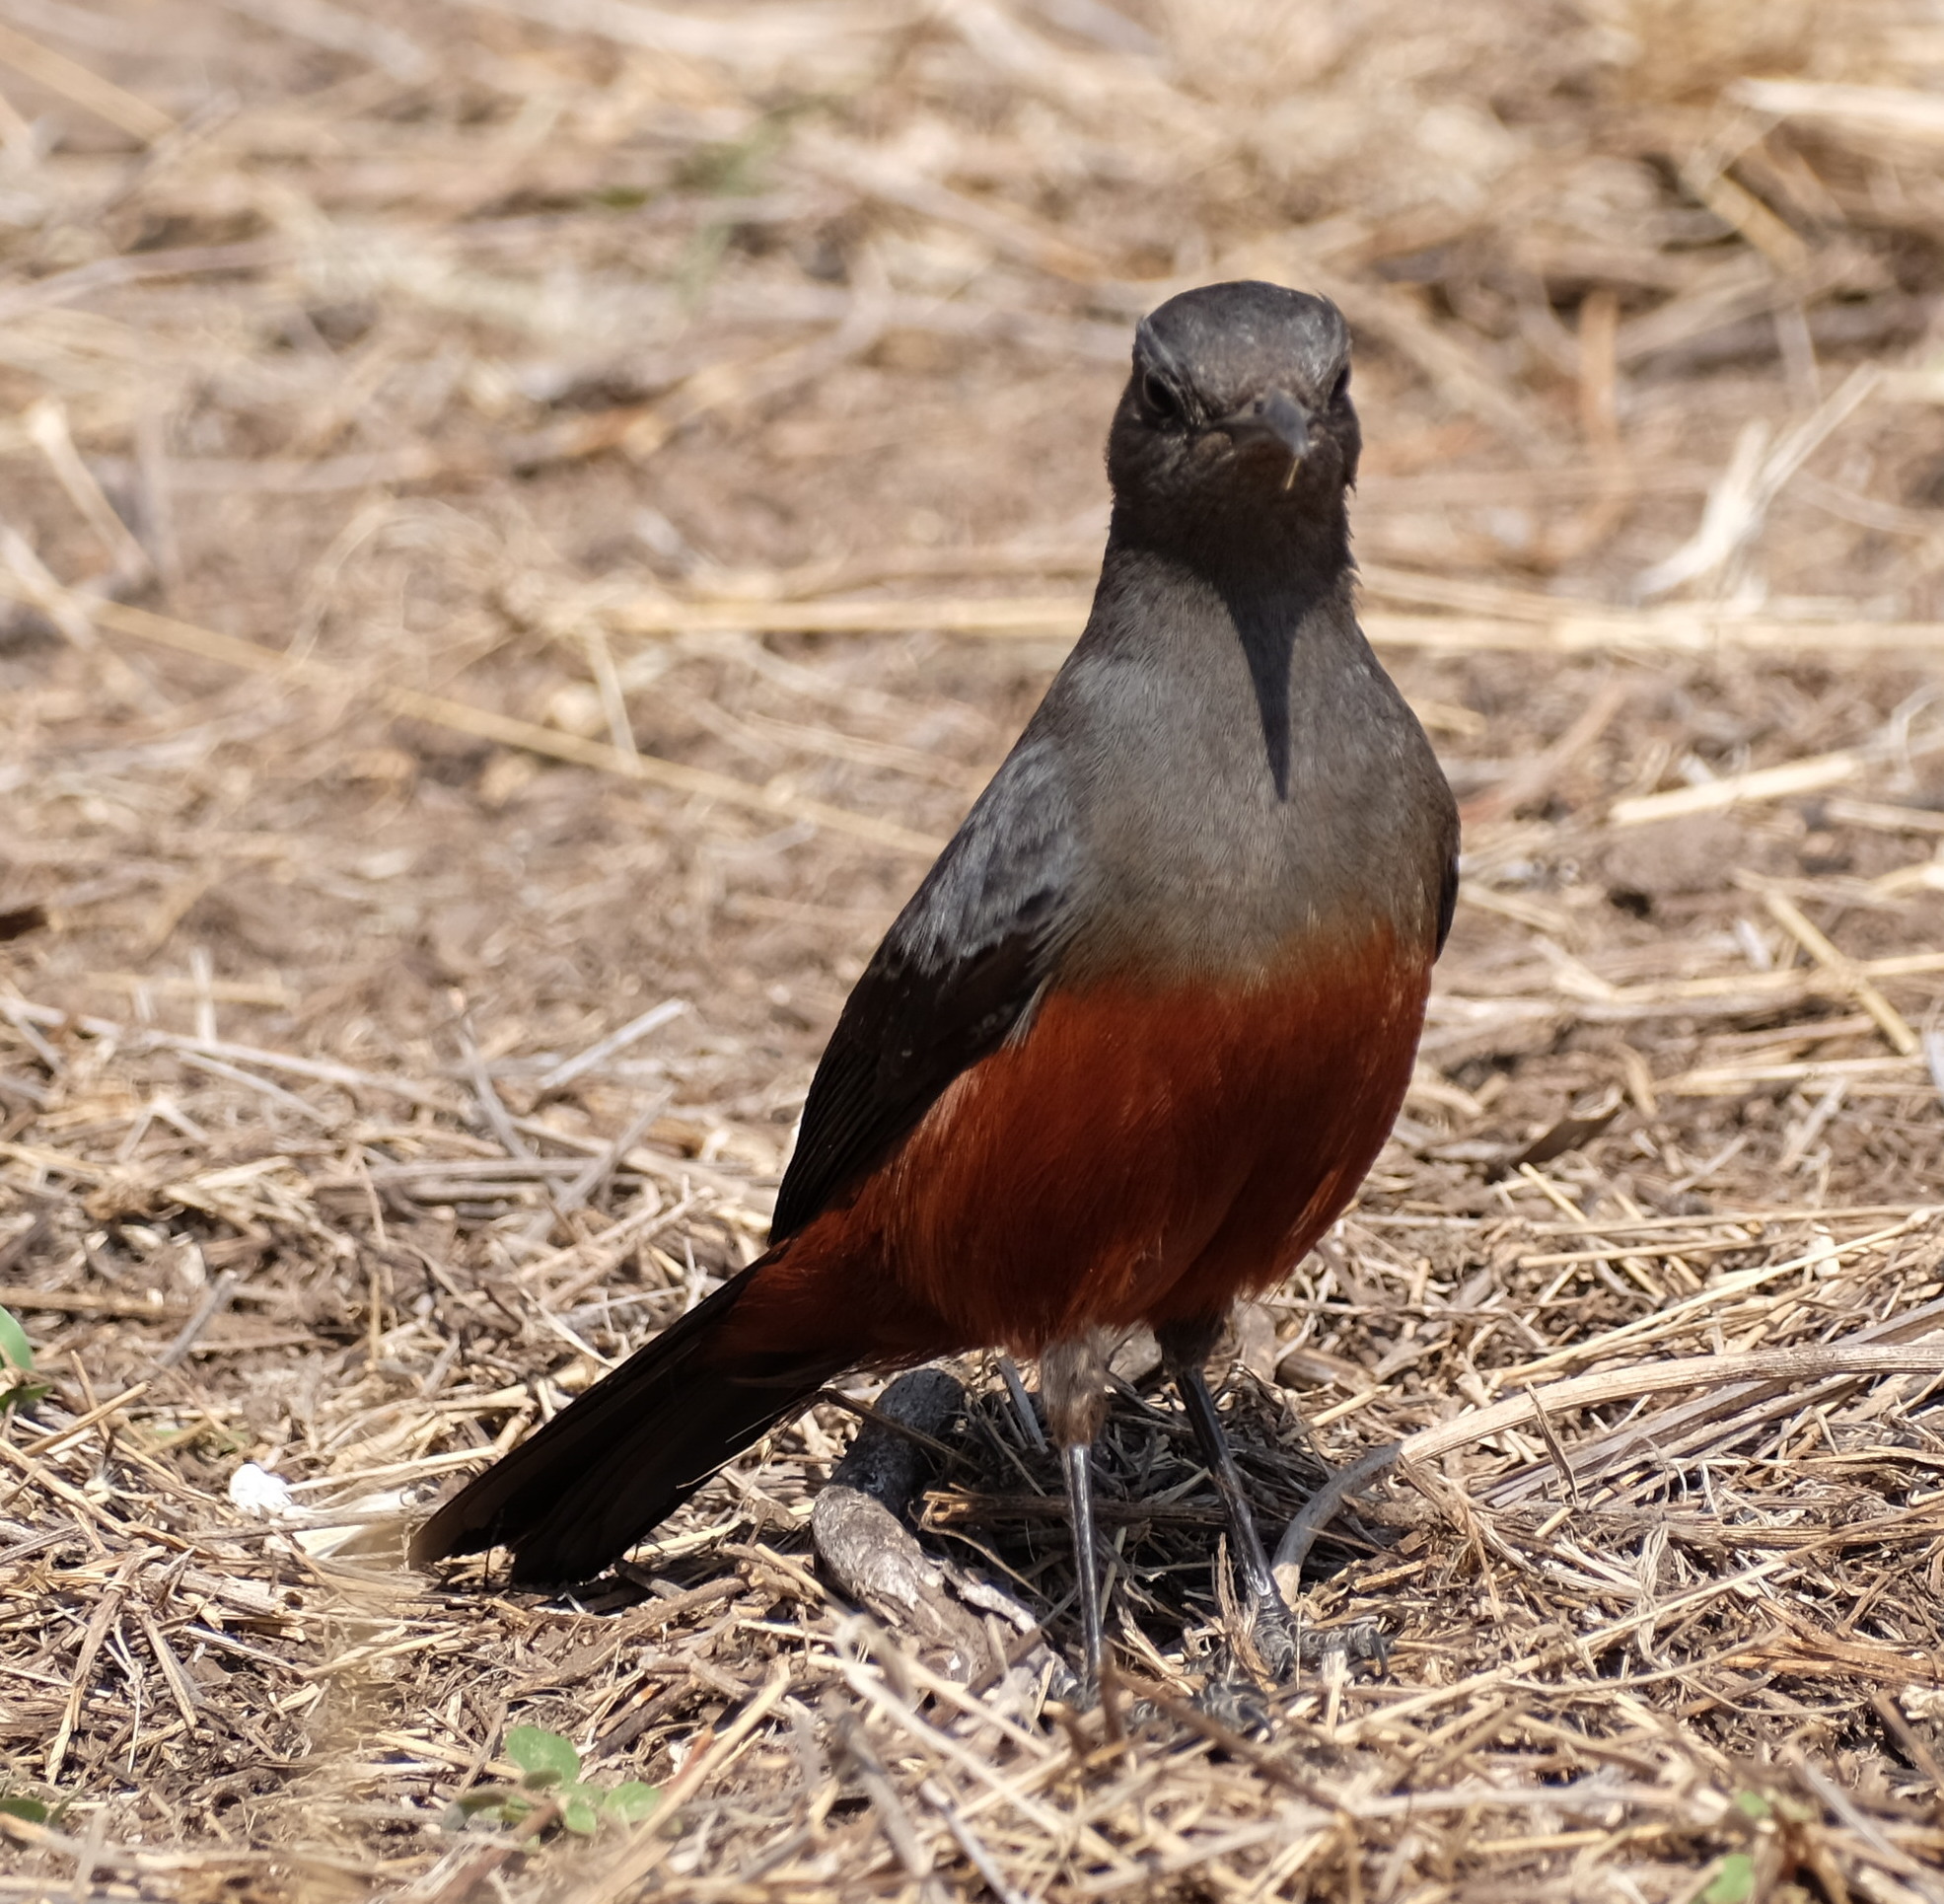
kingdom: Animalia
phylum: Chordata
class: Aves
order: Passeriformes
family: Muscicapidae
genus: Thamnolaea
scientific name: Thamnolaea cinnamomeiventris
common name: Mocking cliff chat
